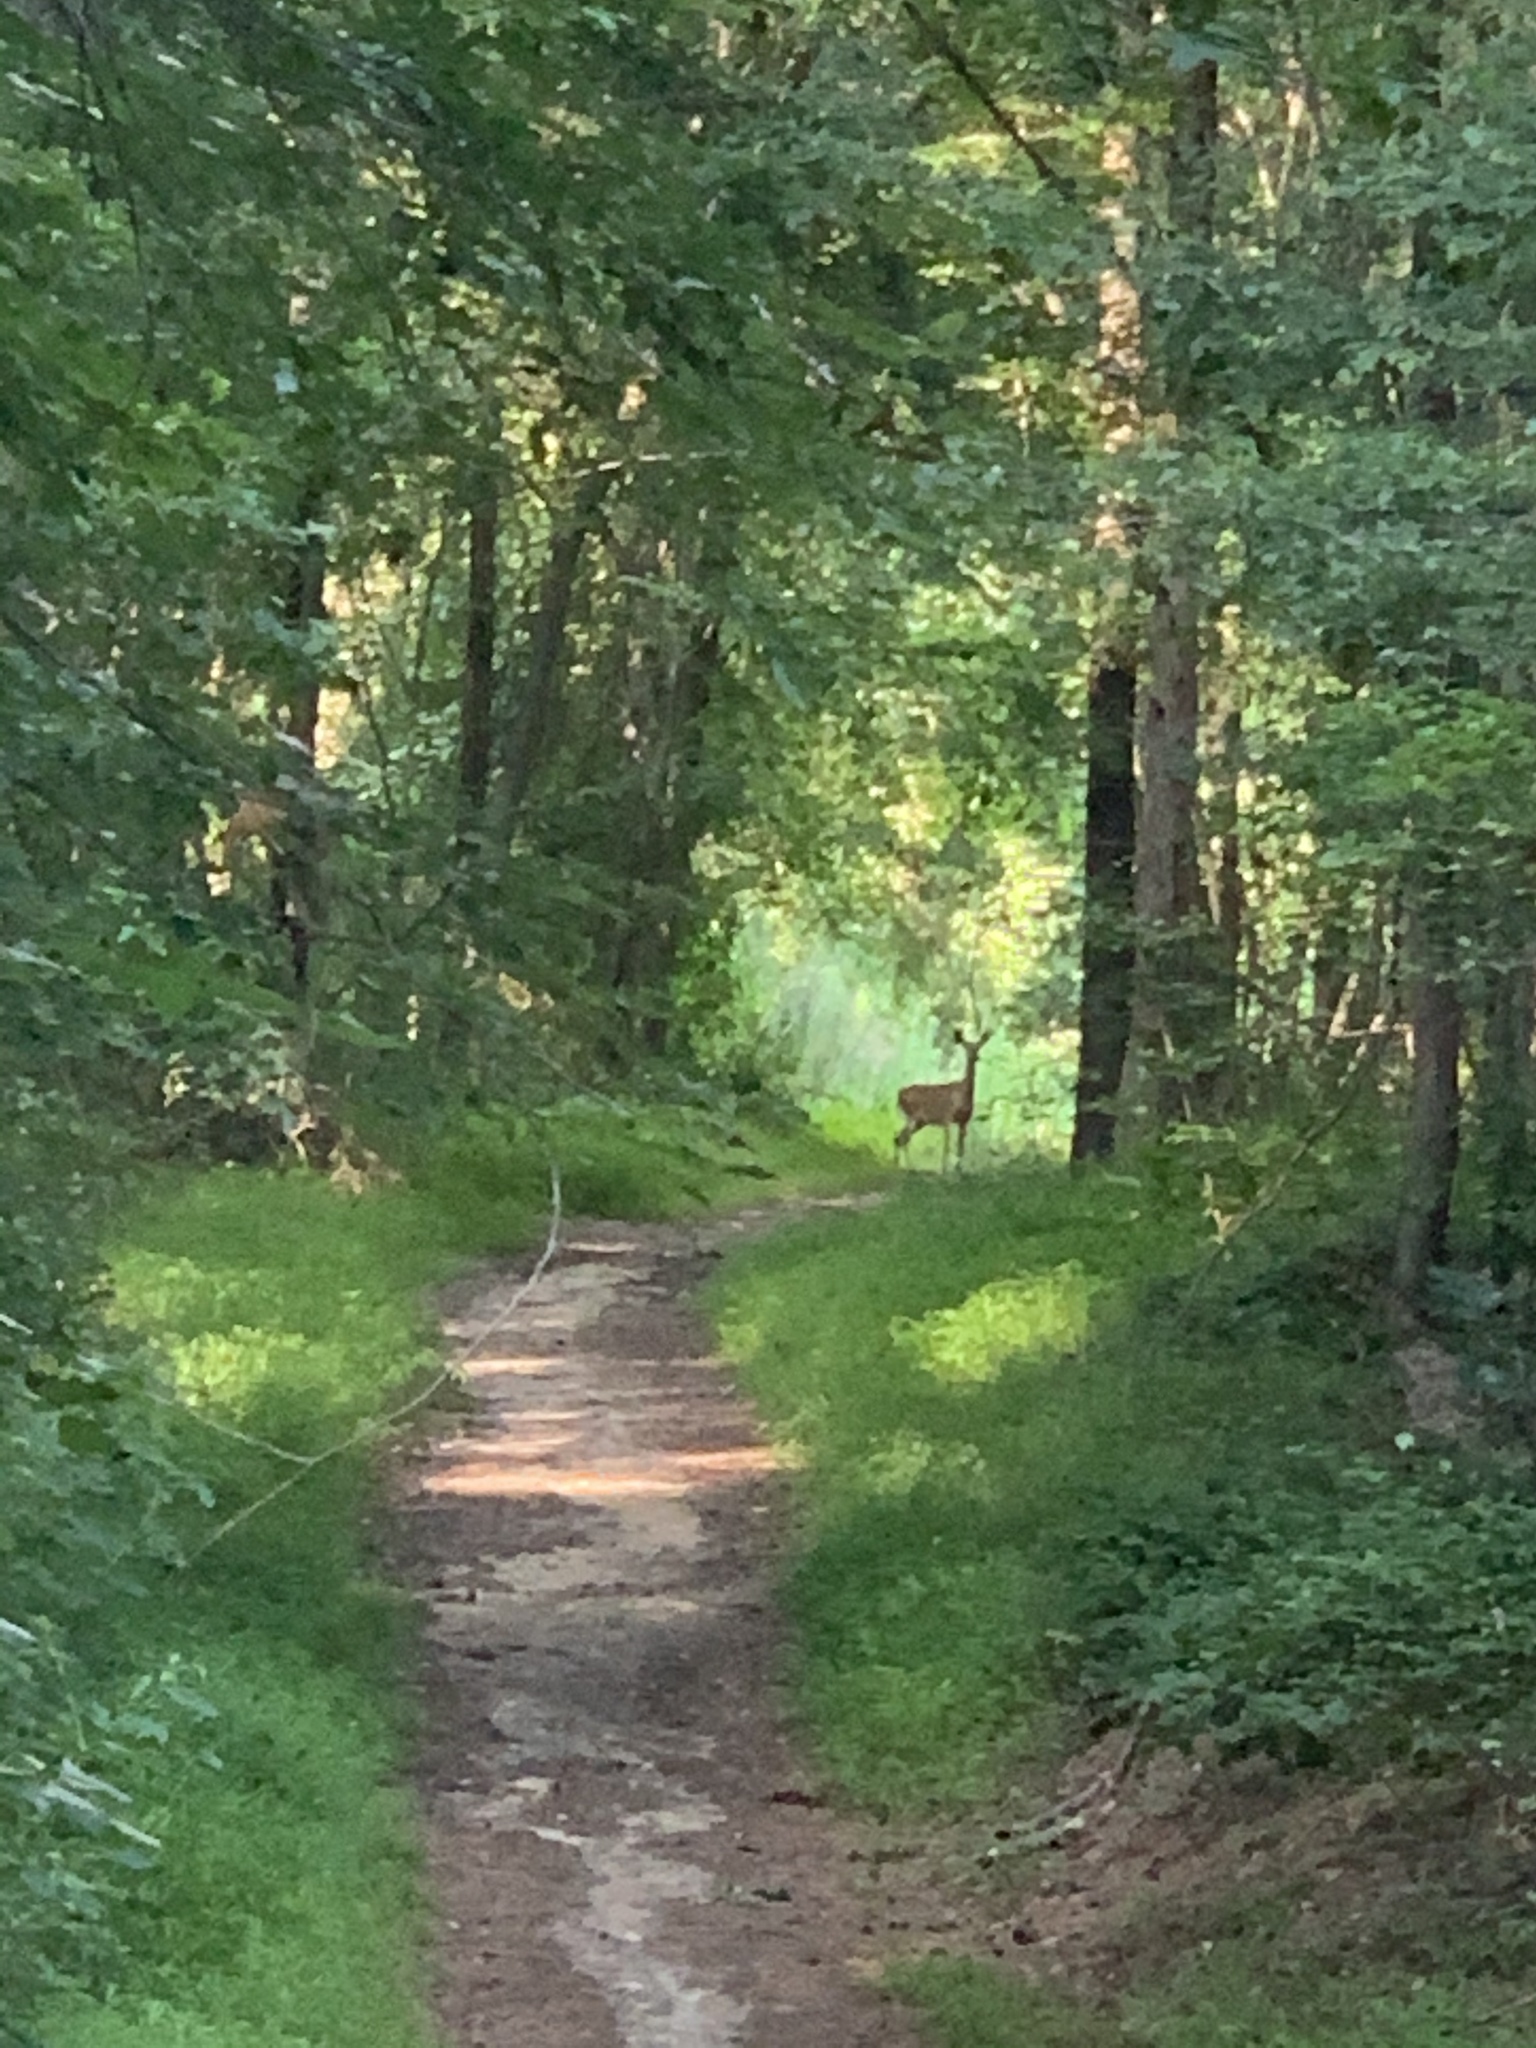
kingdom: Animalia
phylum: Chordata
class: Mammalia
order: Artiodactyla
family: Cervidae
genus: Odocoileus
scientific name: Odocoileus virginianus
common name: White-tailed deer
